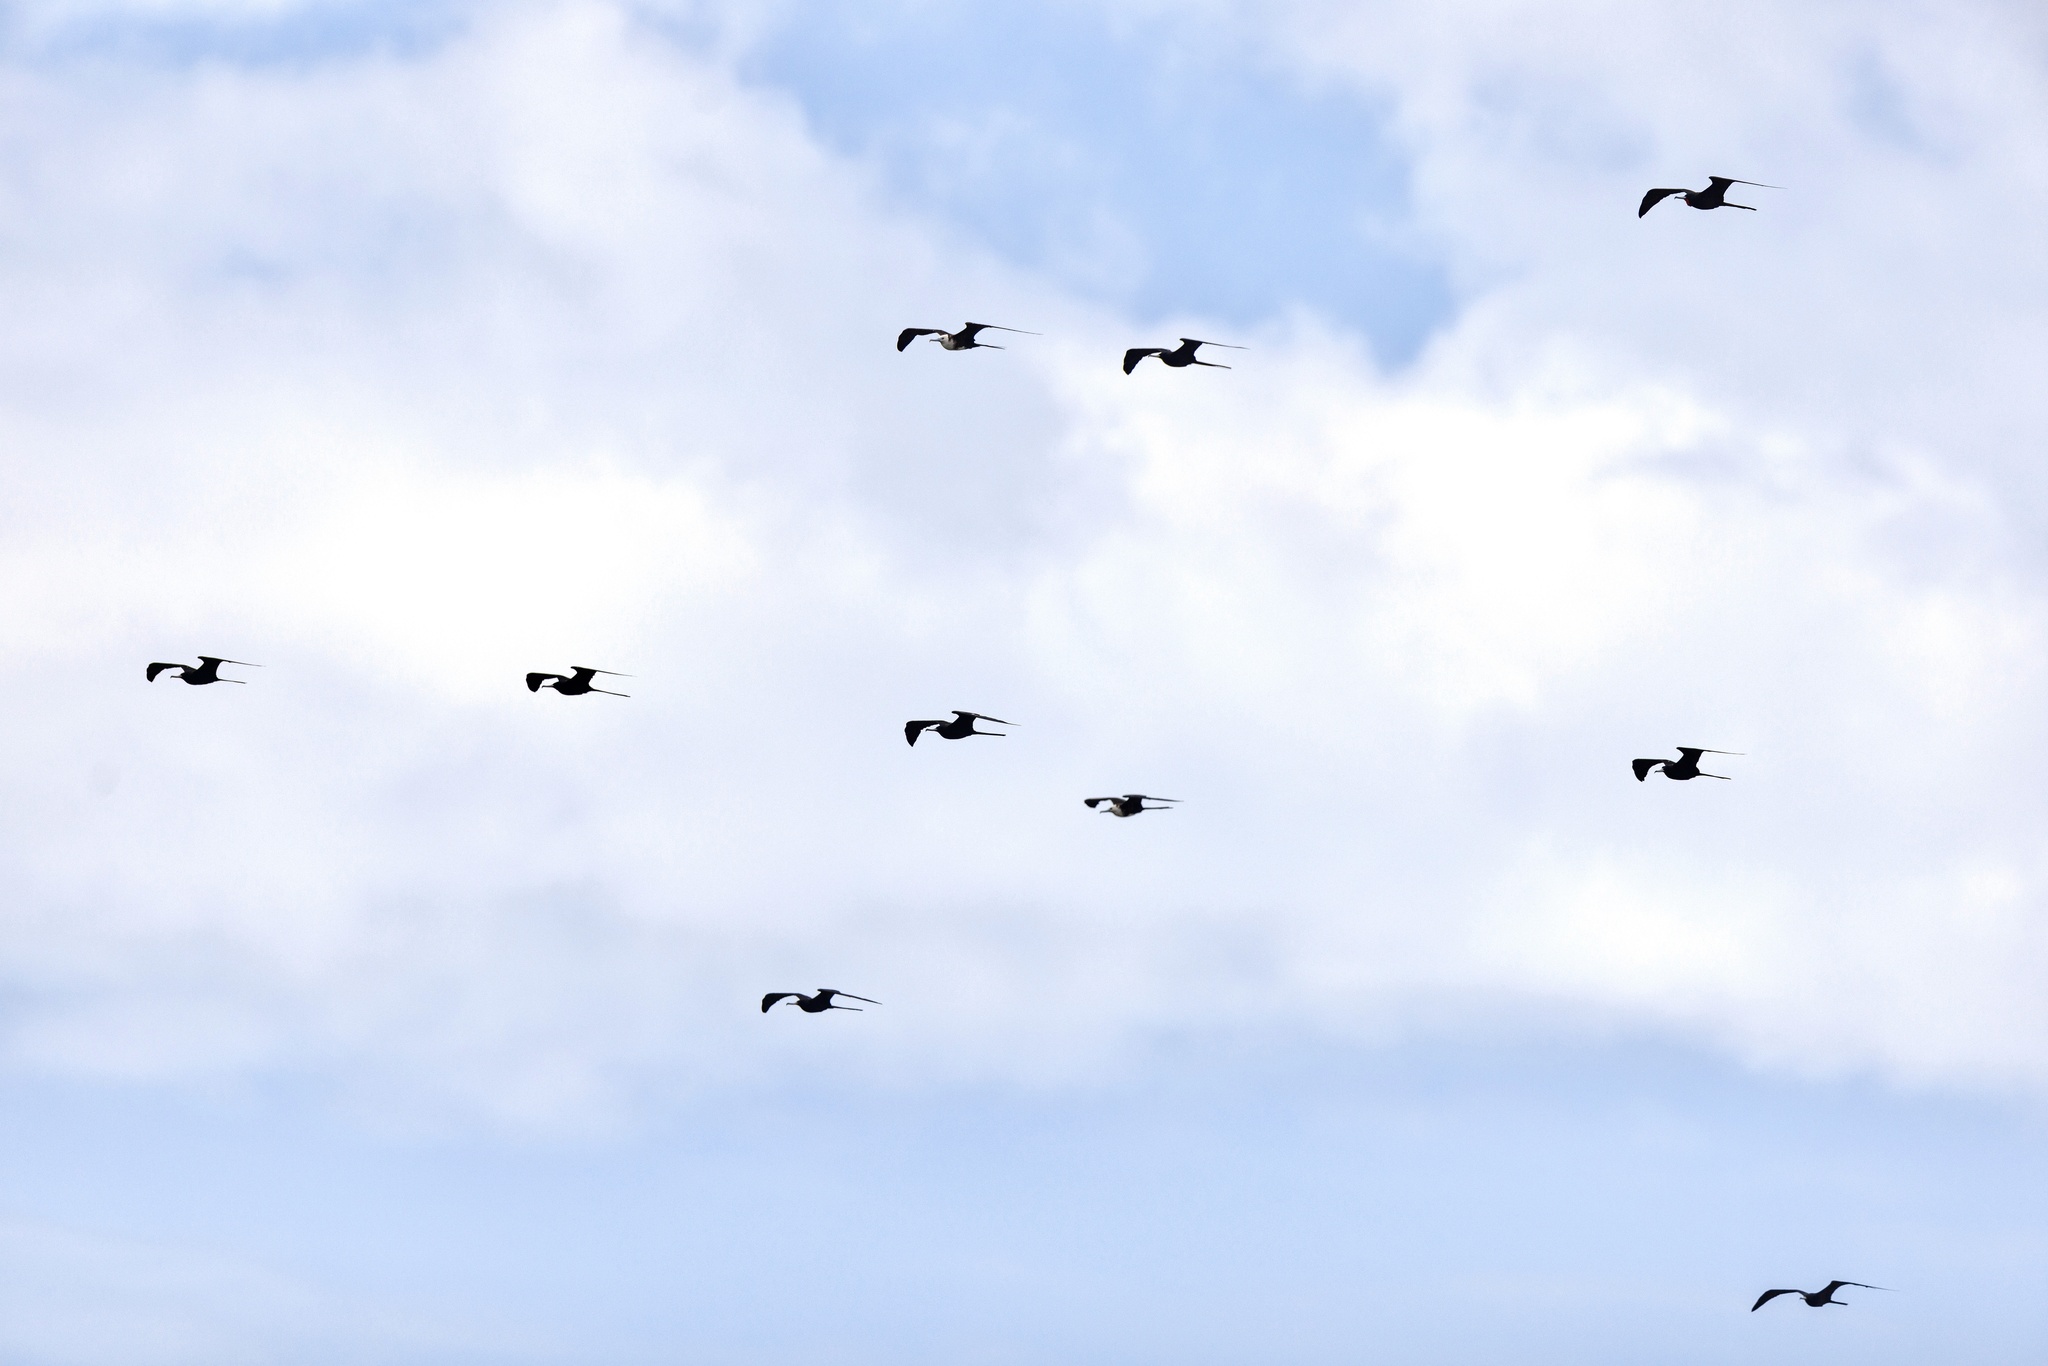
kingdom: Animalia
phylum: Chordata
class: Aves
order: Suliformes
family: Fregatidae
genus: Fregata
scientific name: Fregata magnificens
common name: Magnificent frigatebird
